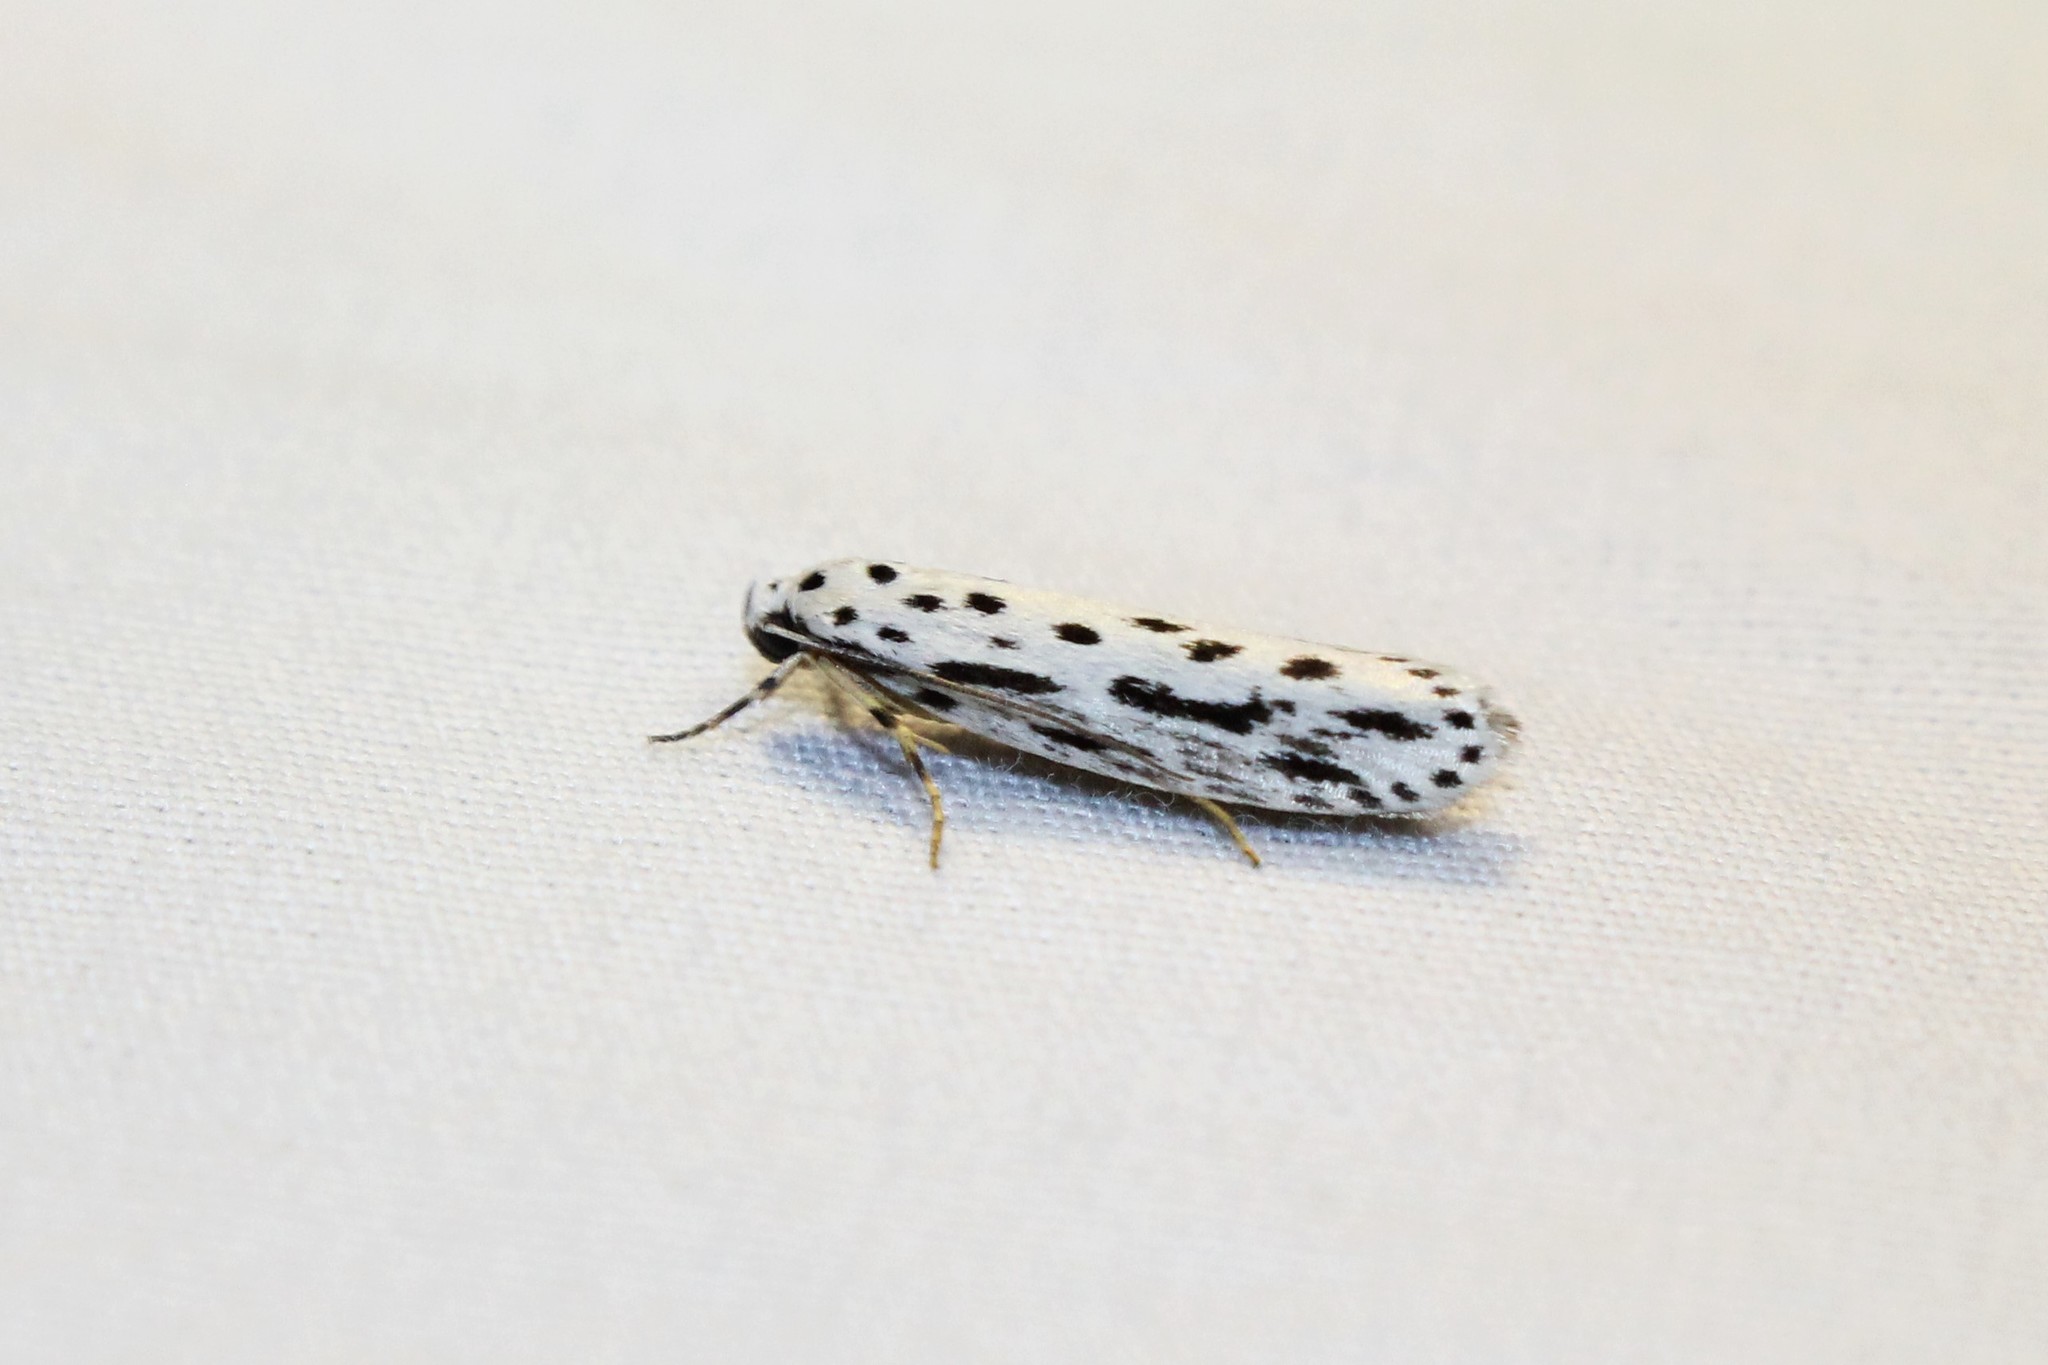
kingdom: Animalia
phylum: Arthropoda
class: Insecta
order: Lepidoptera
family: Ethmiidae
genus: Ethmia
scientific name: Ethmia zelleriella
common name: Zeller's ethmia
